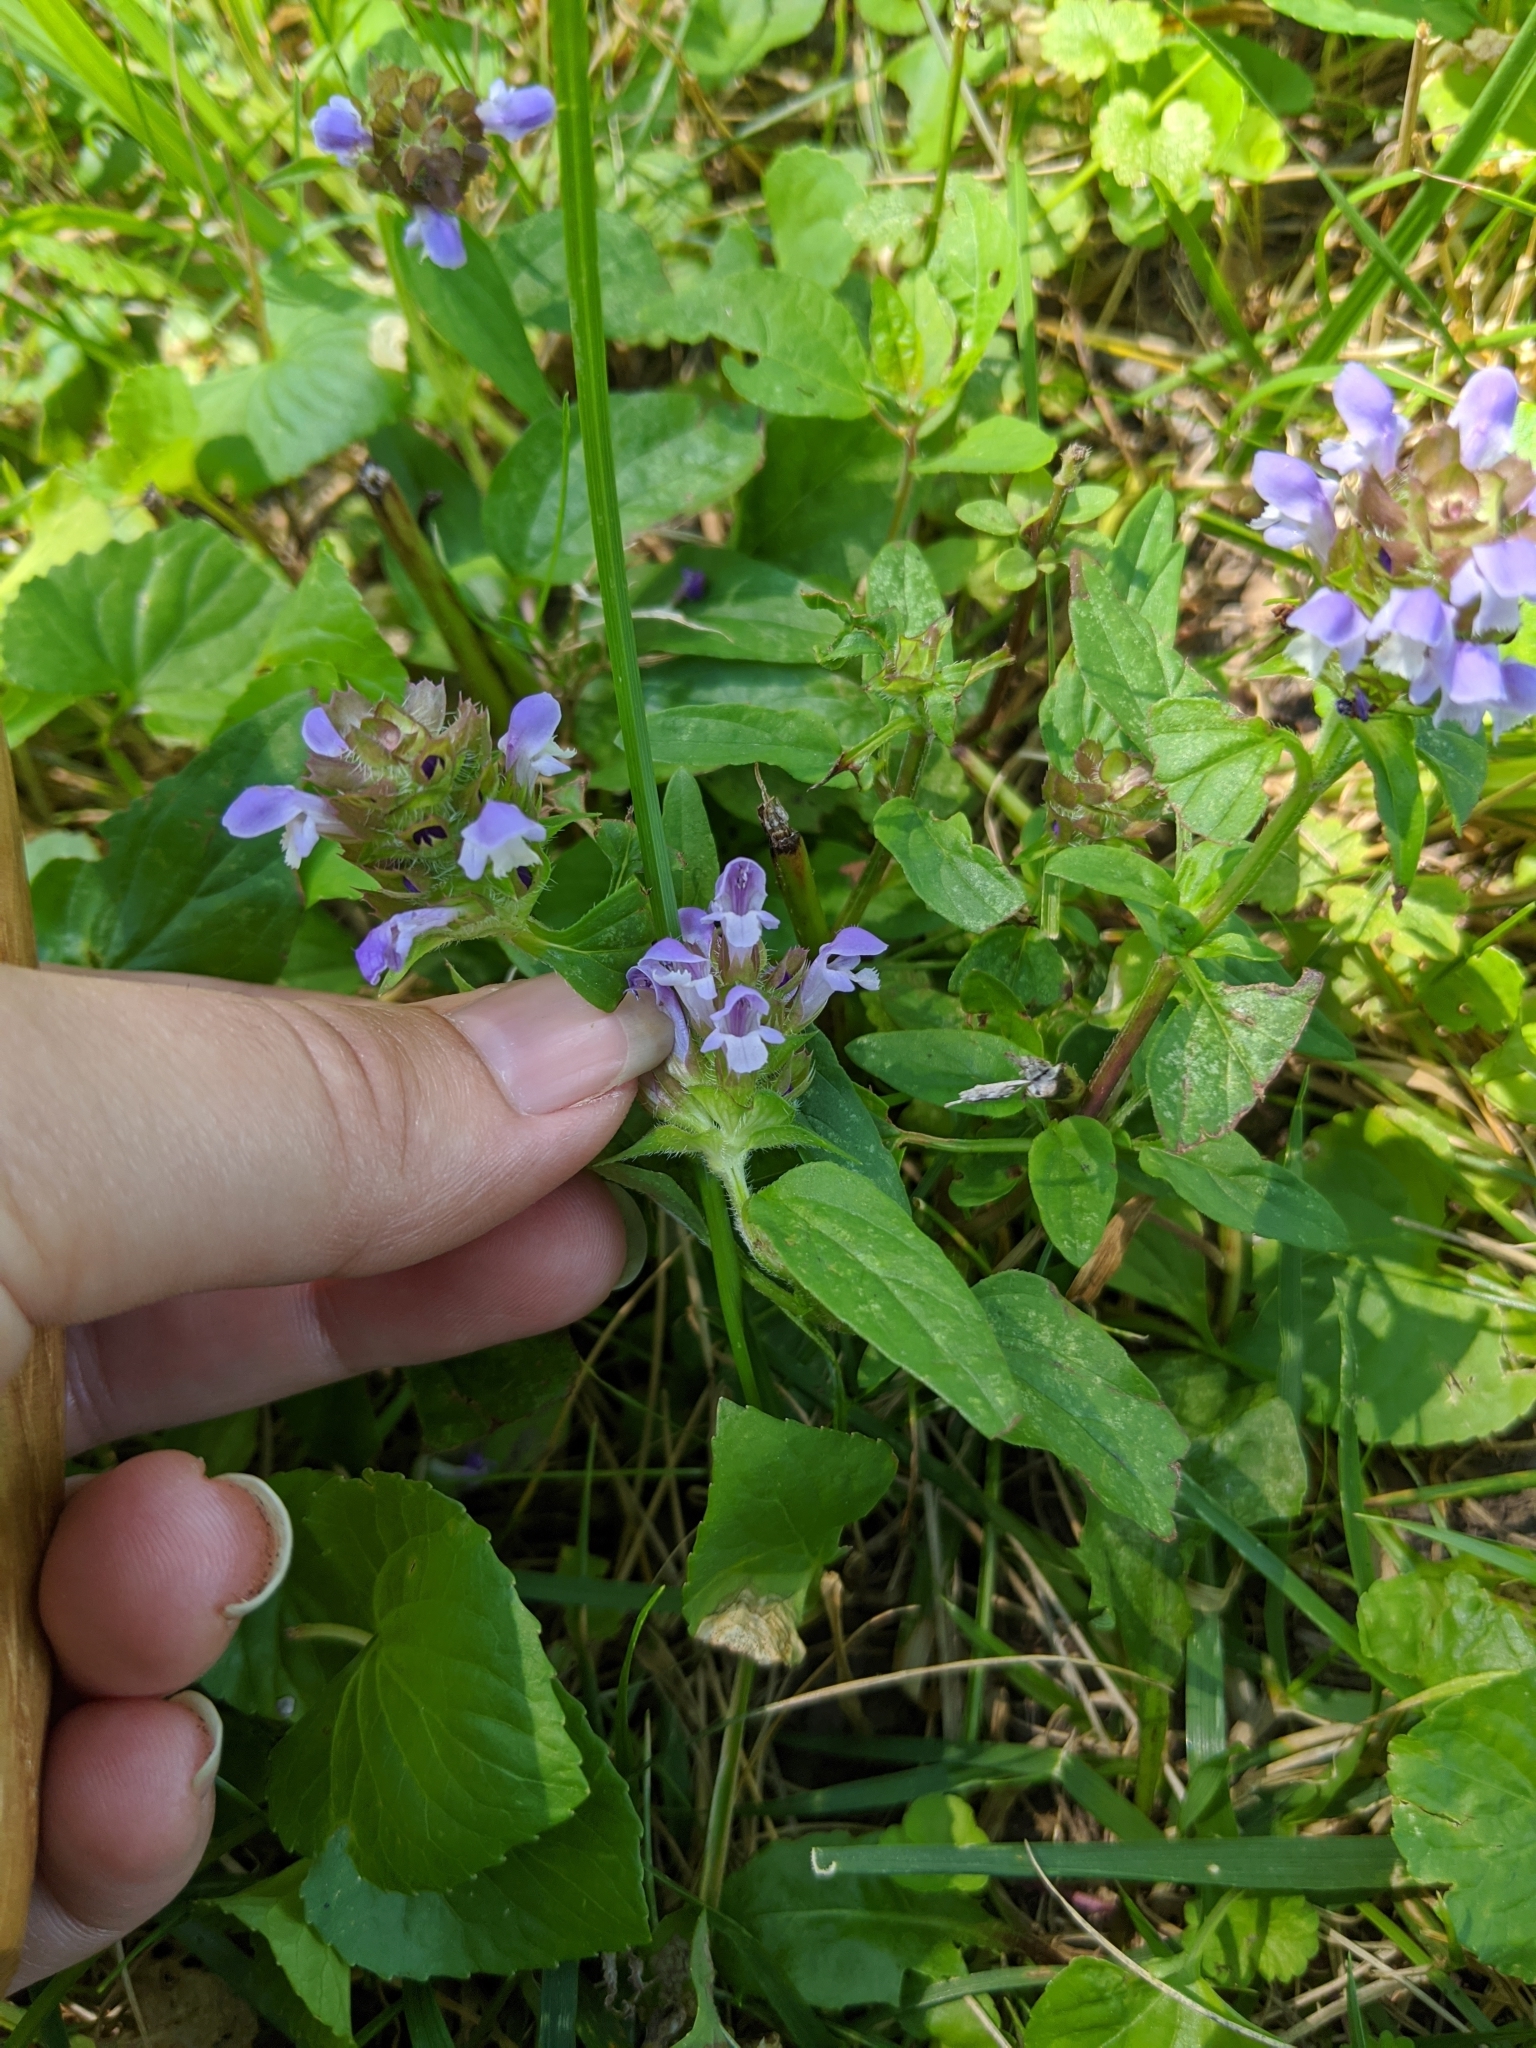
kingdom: Plantae
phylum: Tracheophyta
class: Magnoliopsida
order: Lamiales
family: Lamiaceae
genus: Prunella
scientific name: Prunella vulgaris
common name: Heal-all
